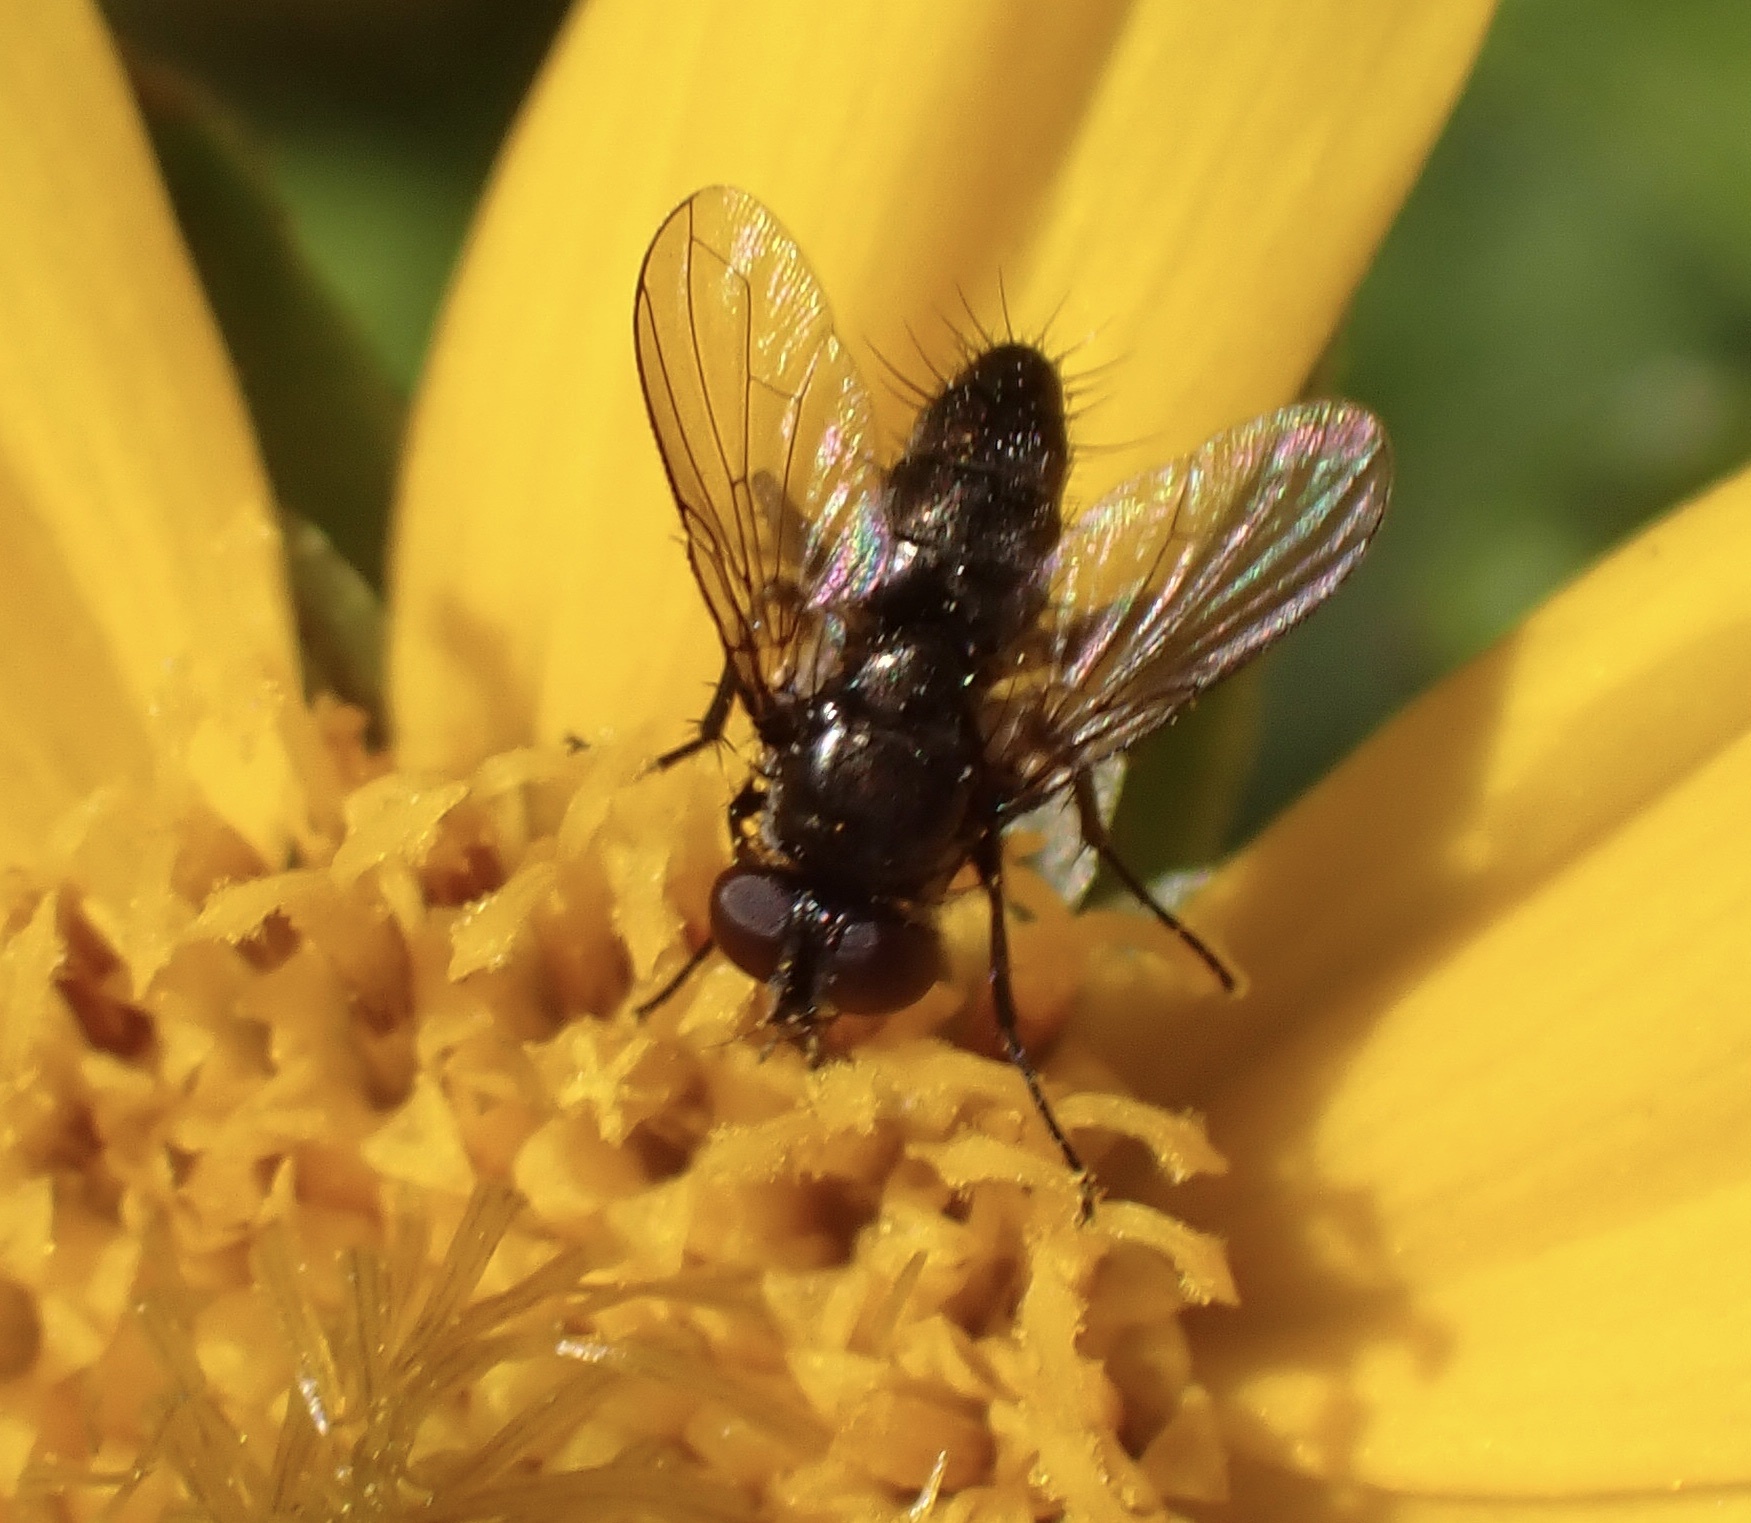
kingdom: Animalia
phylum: Arthropoda
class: Insecta
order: Diptera
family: Calliphoridae
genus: Rhinophora
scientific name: Rhinophora lepida
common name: Pouting woodlouse-fly
